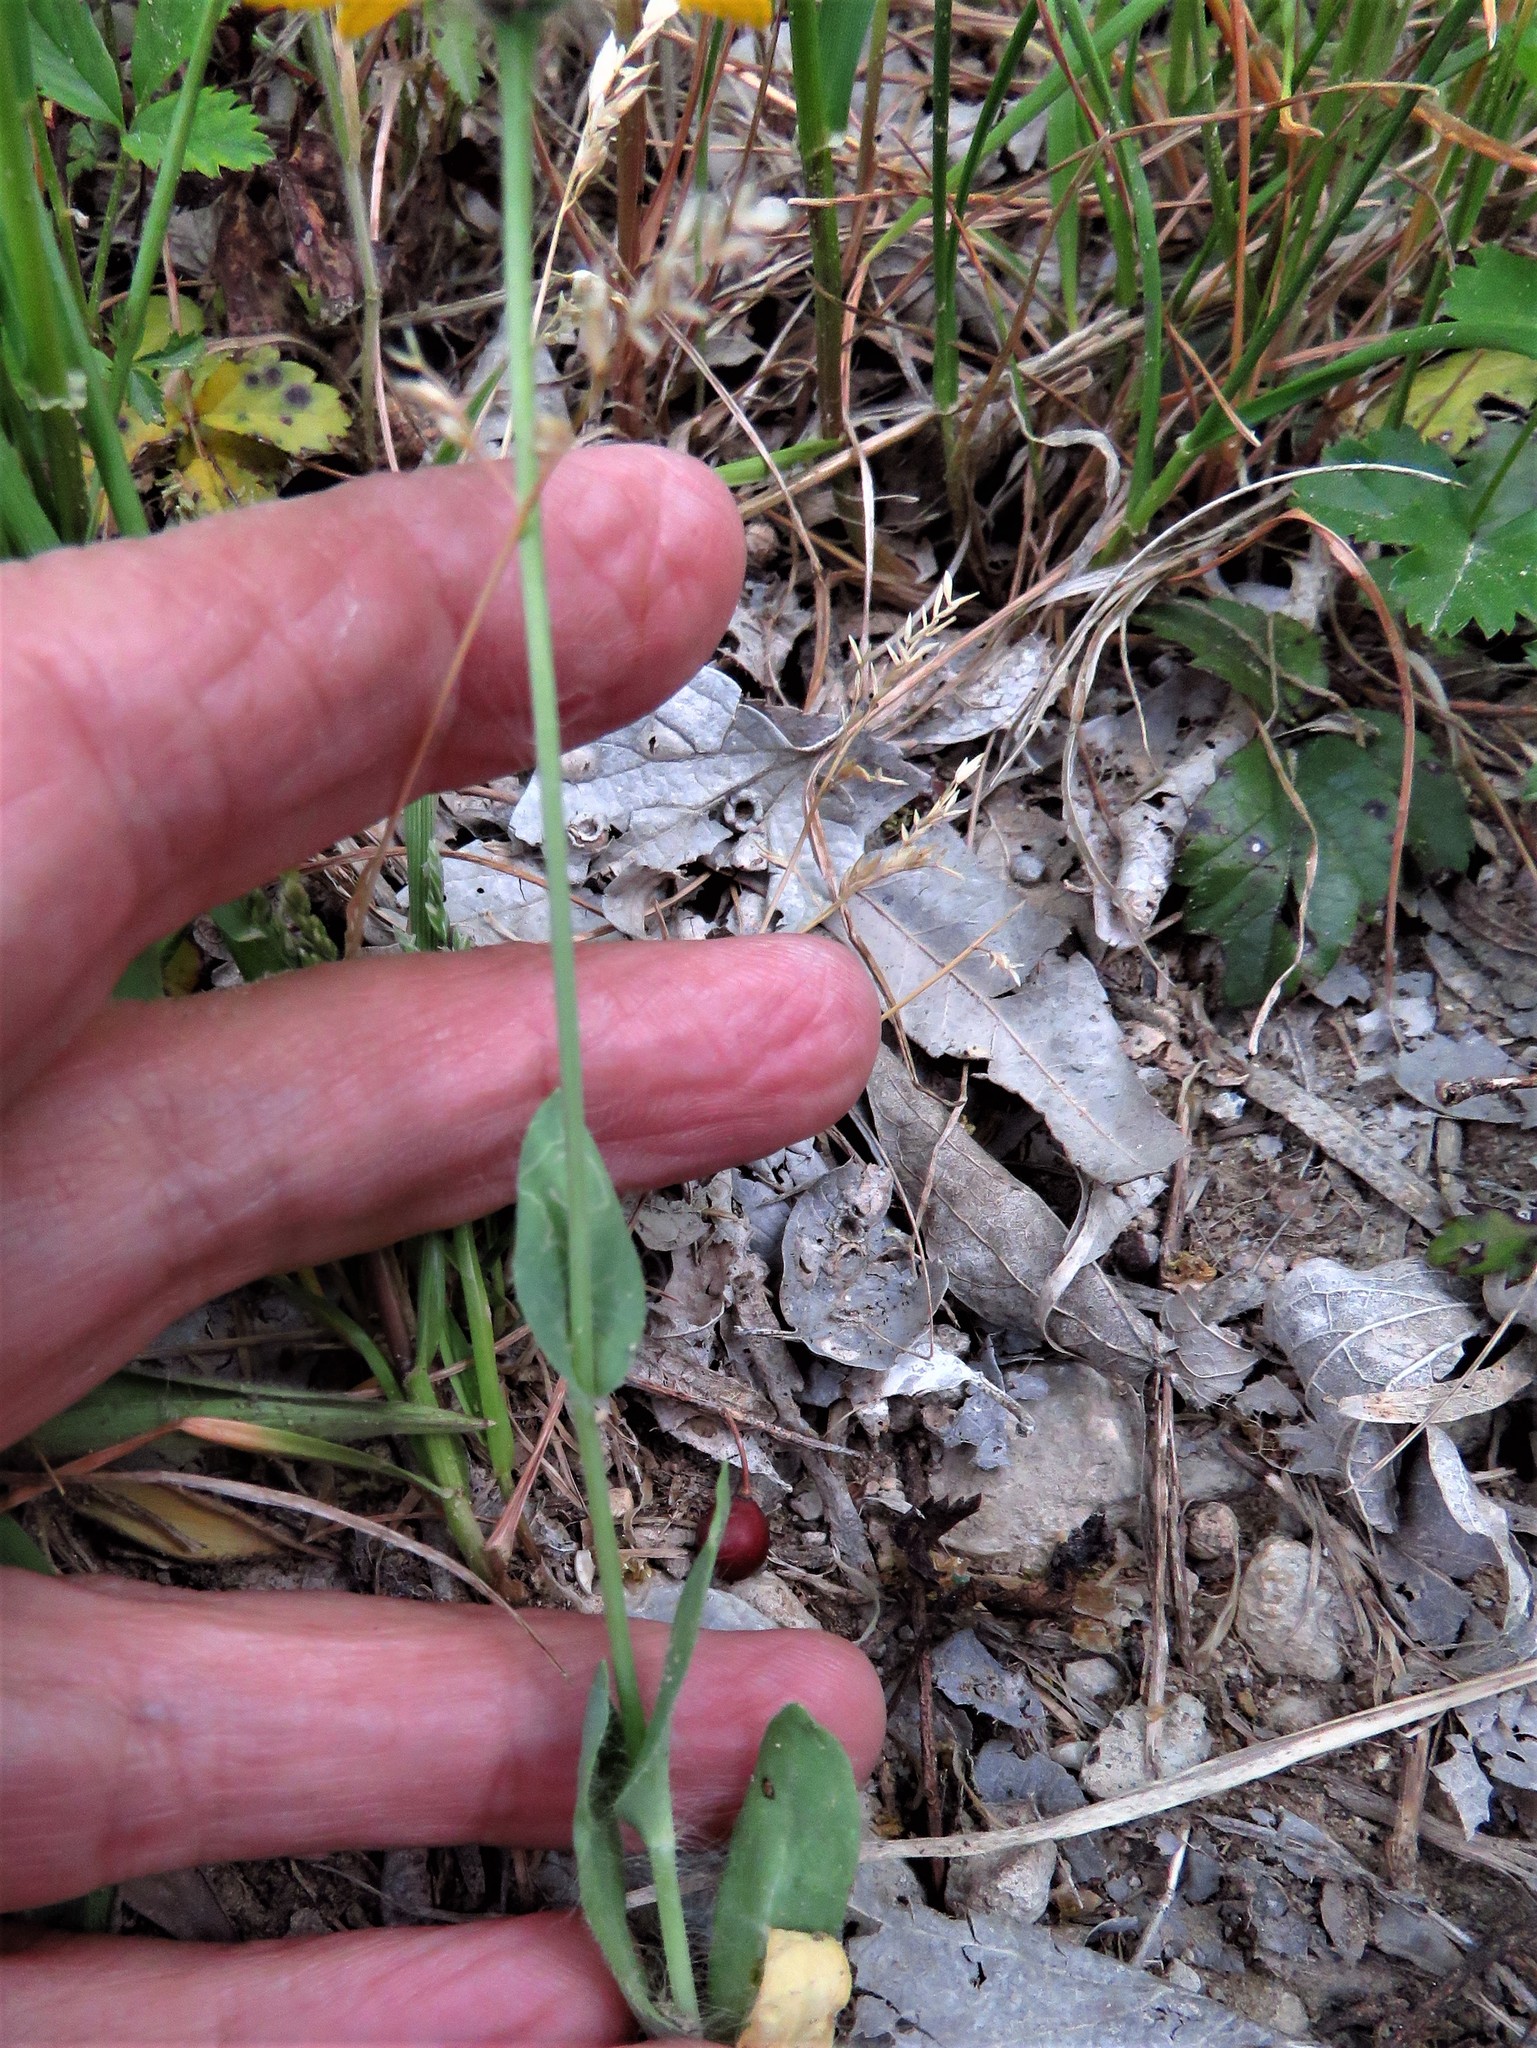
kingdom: Plantae
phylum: Tracheophyta
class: Magnoliopsida
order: Asterales
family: Asteraceae
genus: Amblyolepis
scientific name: Amblyolepis setigera
